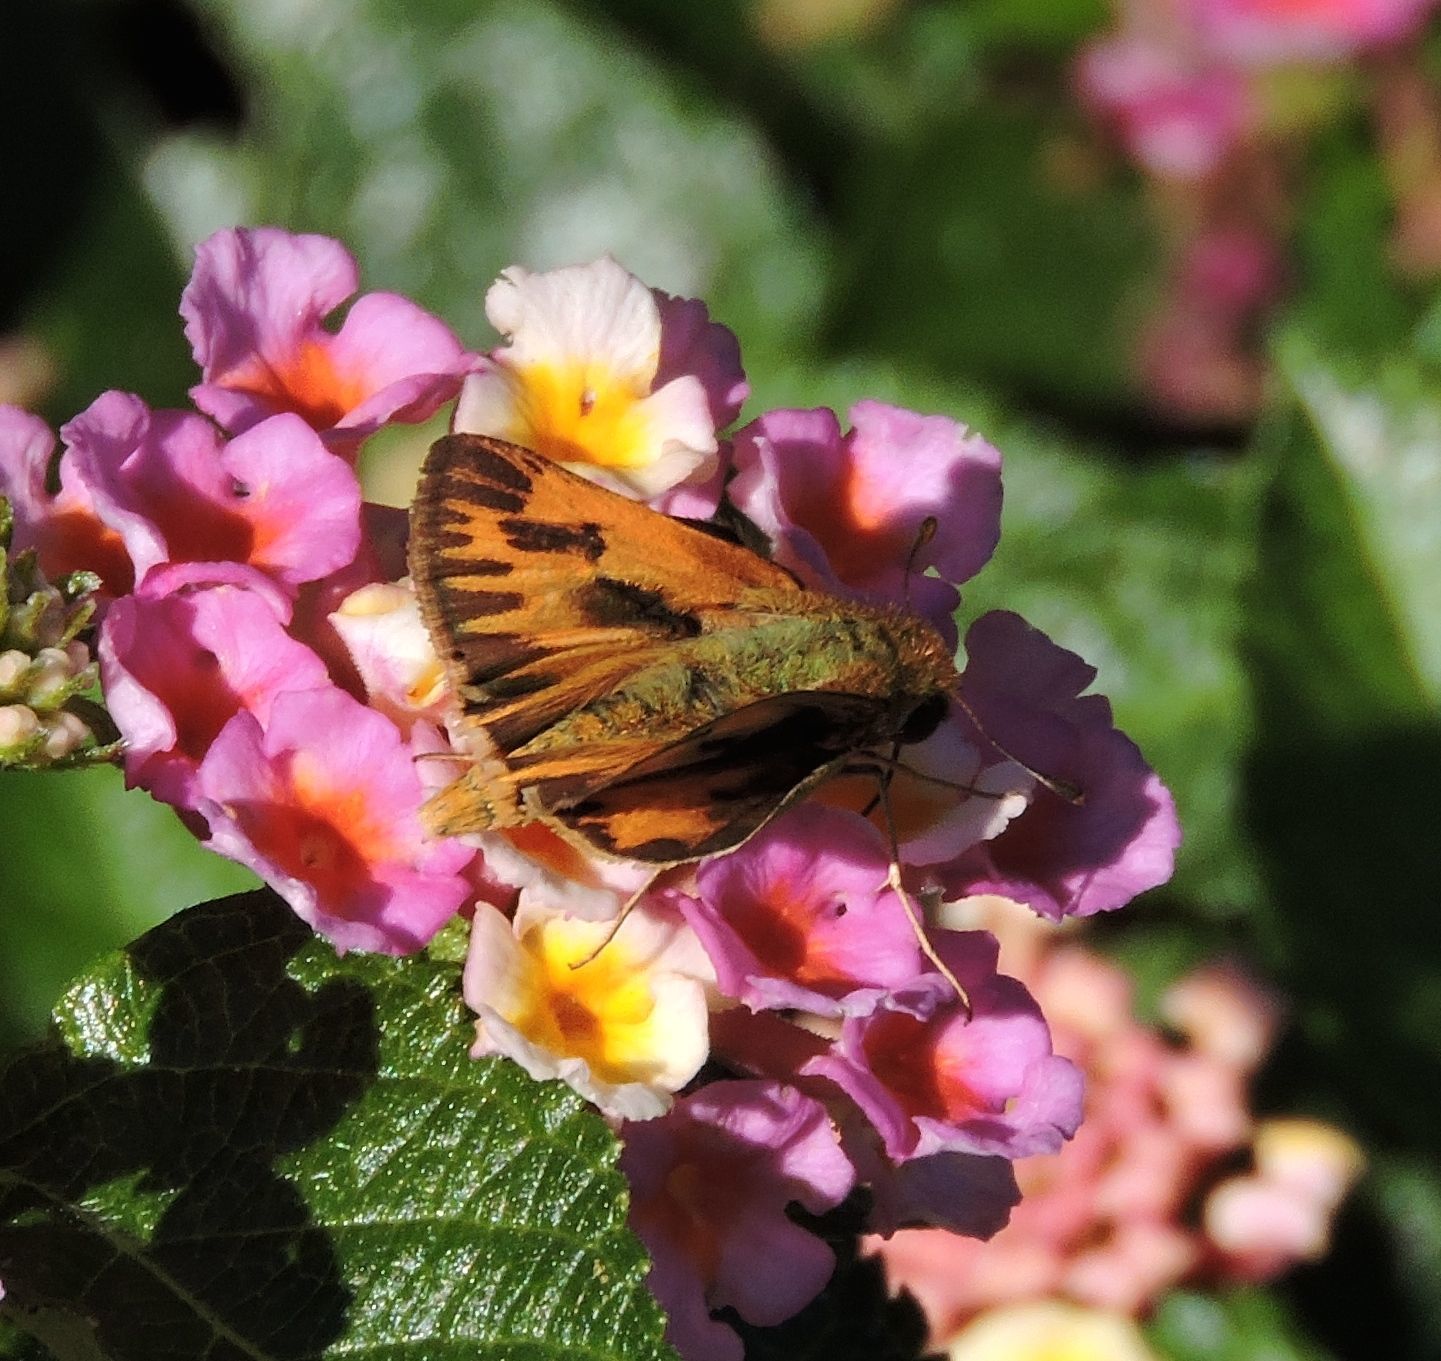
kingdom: Animalia
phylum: Arthropoda
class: Insecta
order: Lepidoptera
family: Hesperiidae
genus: Hylephila
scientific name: Hylephila phyleus
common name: Fiery skipper
